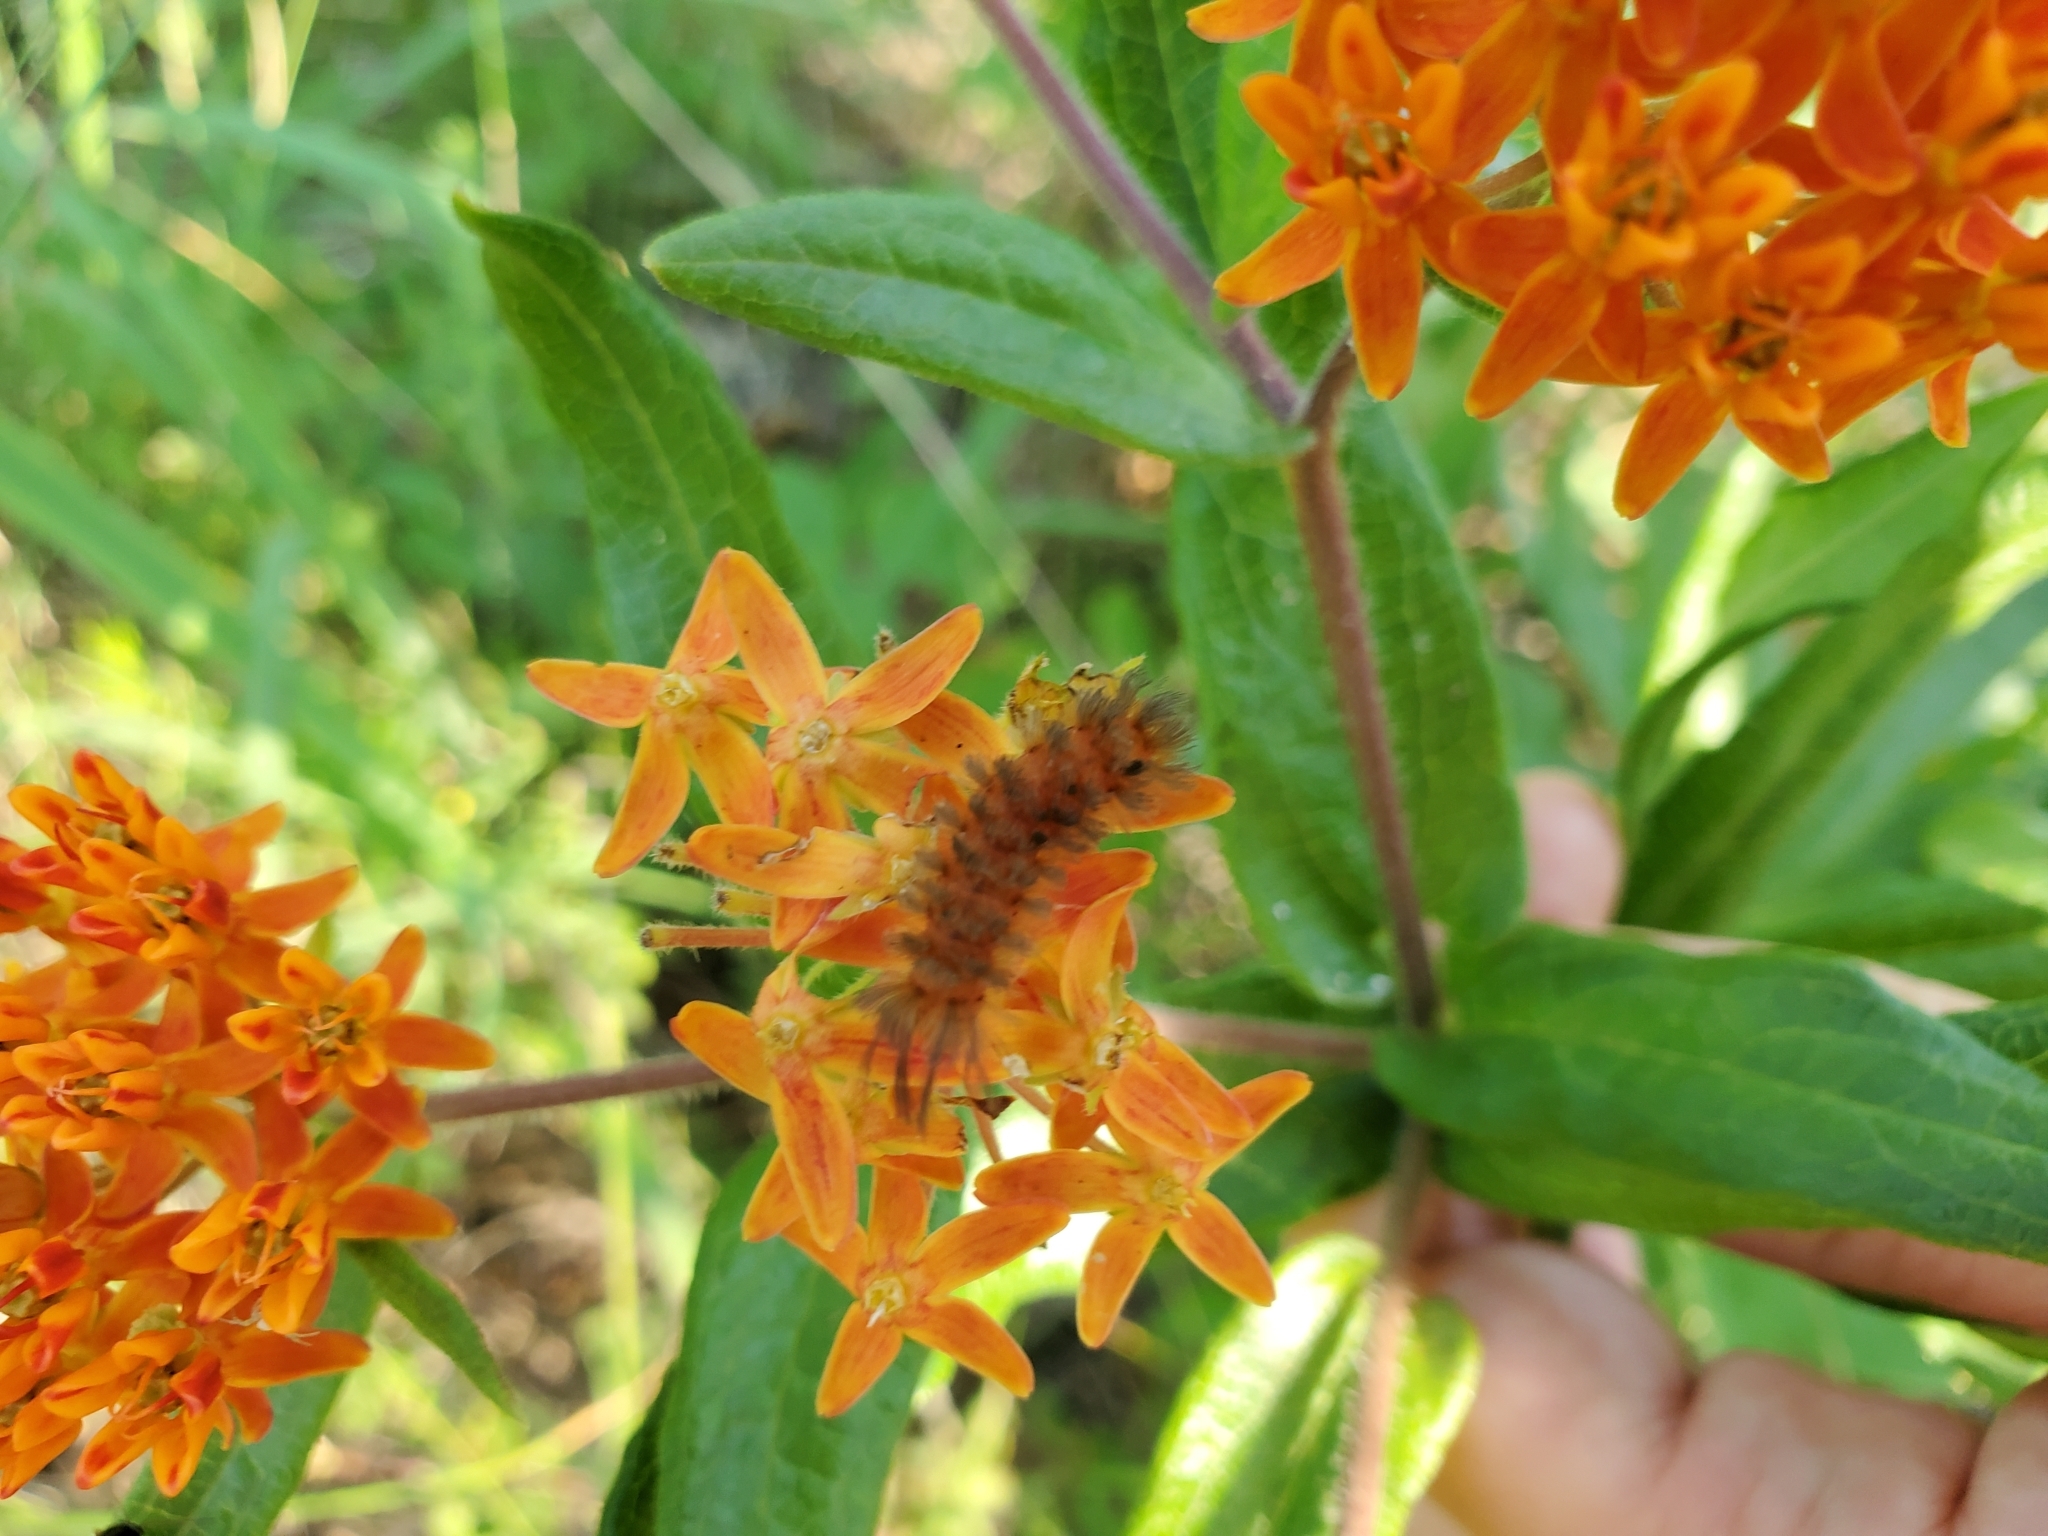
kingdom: Animalia
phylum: Arthropoda
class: Insecta
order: Lepidoptera
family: Erebidae
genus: Cycnia
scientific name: Cycnia collaris
